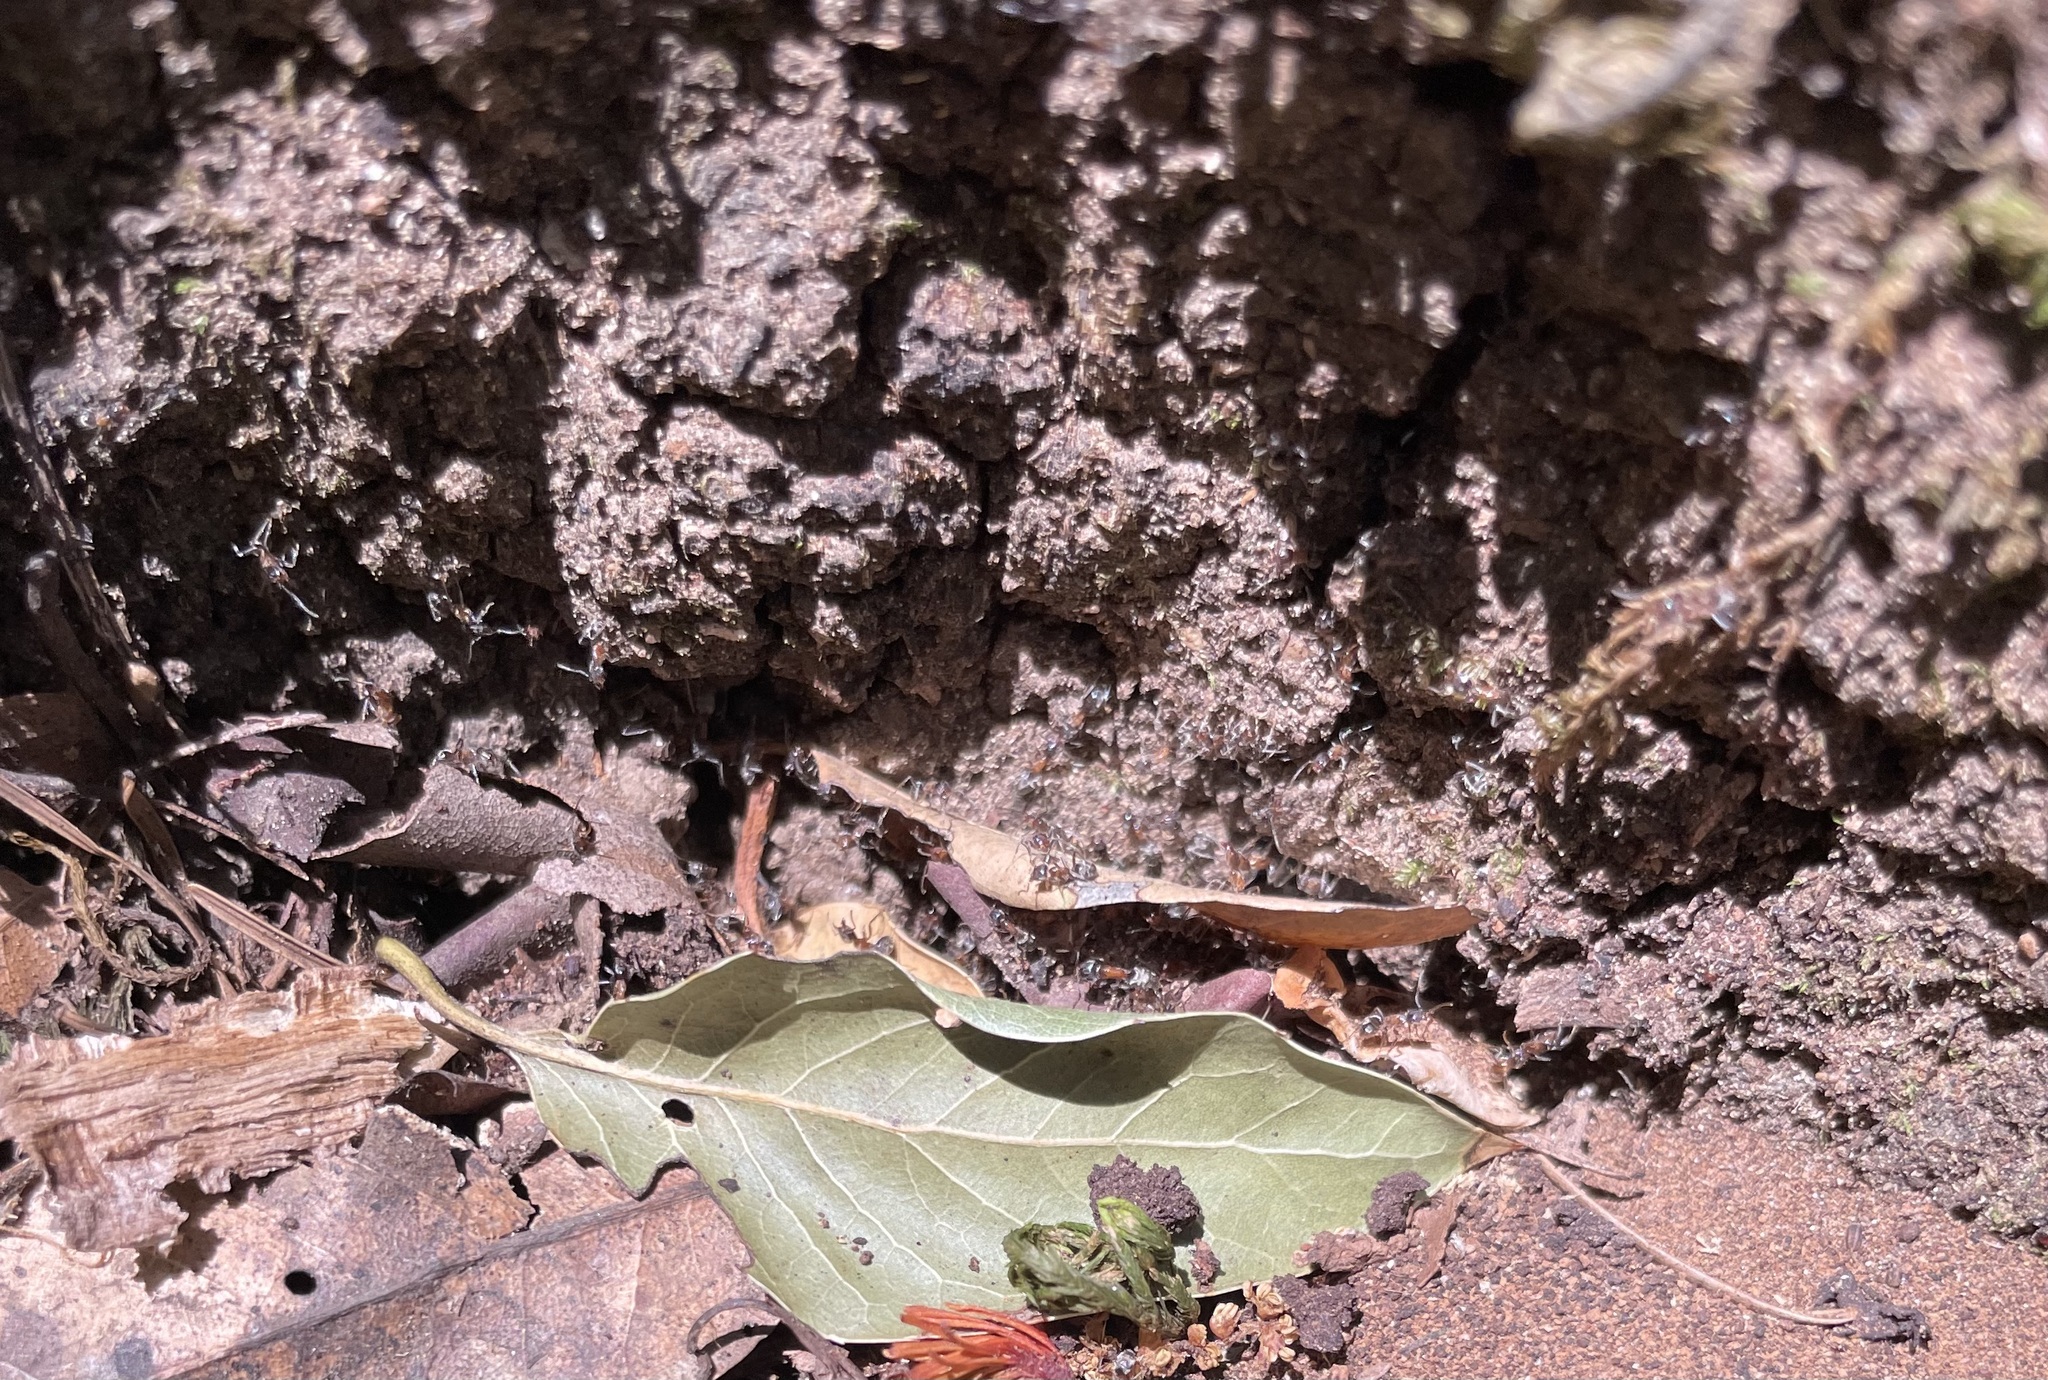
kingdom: Animalia
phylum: Arthropoda
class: Insecta
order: Hymenoptera
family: Formicidae
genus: Liometopum
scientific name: Liometopum occidentale
